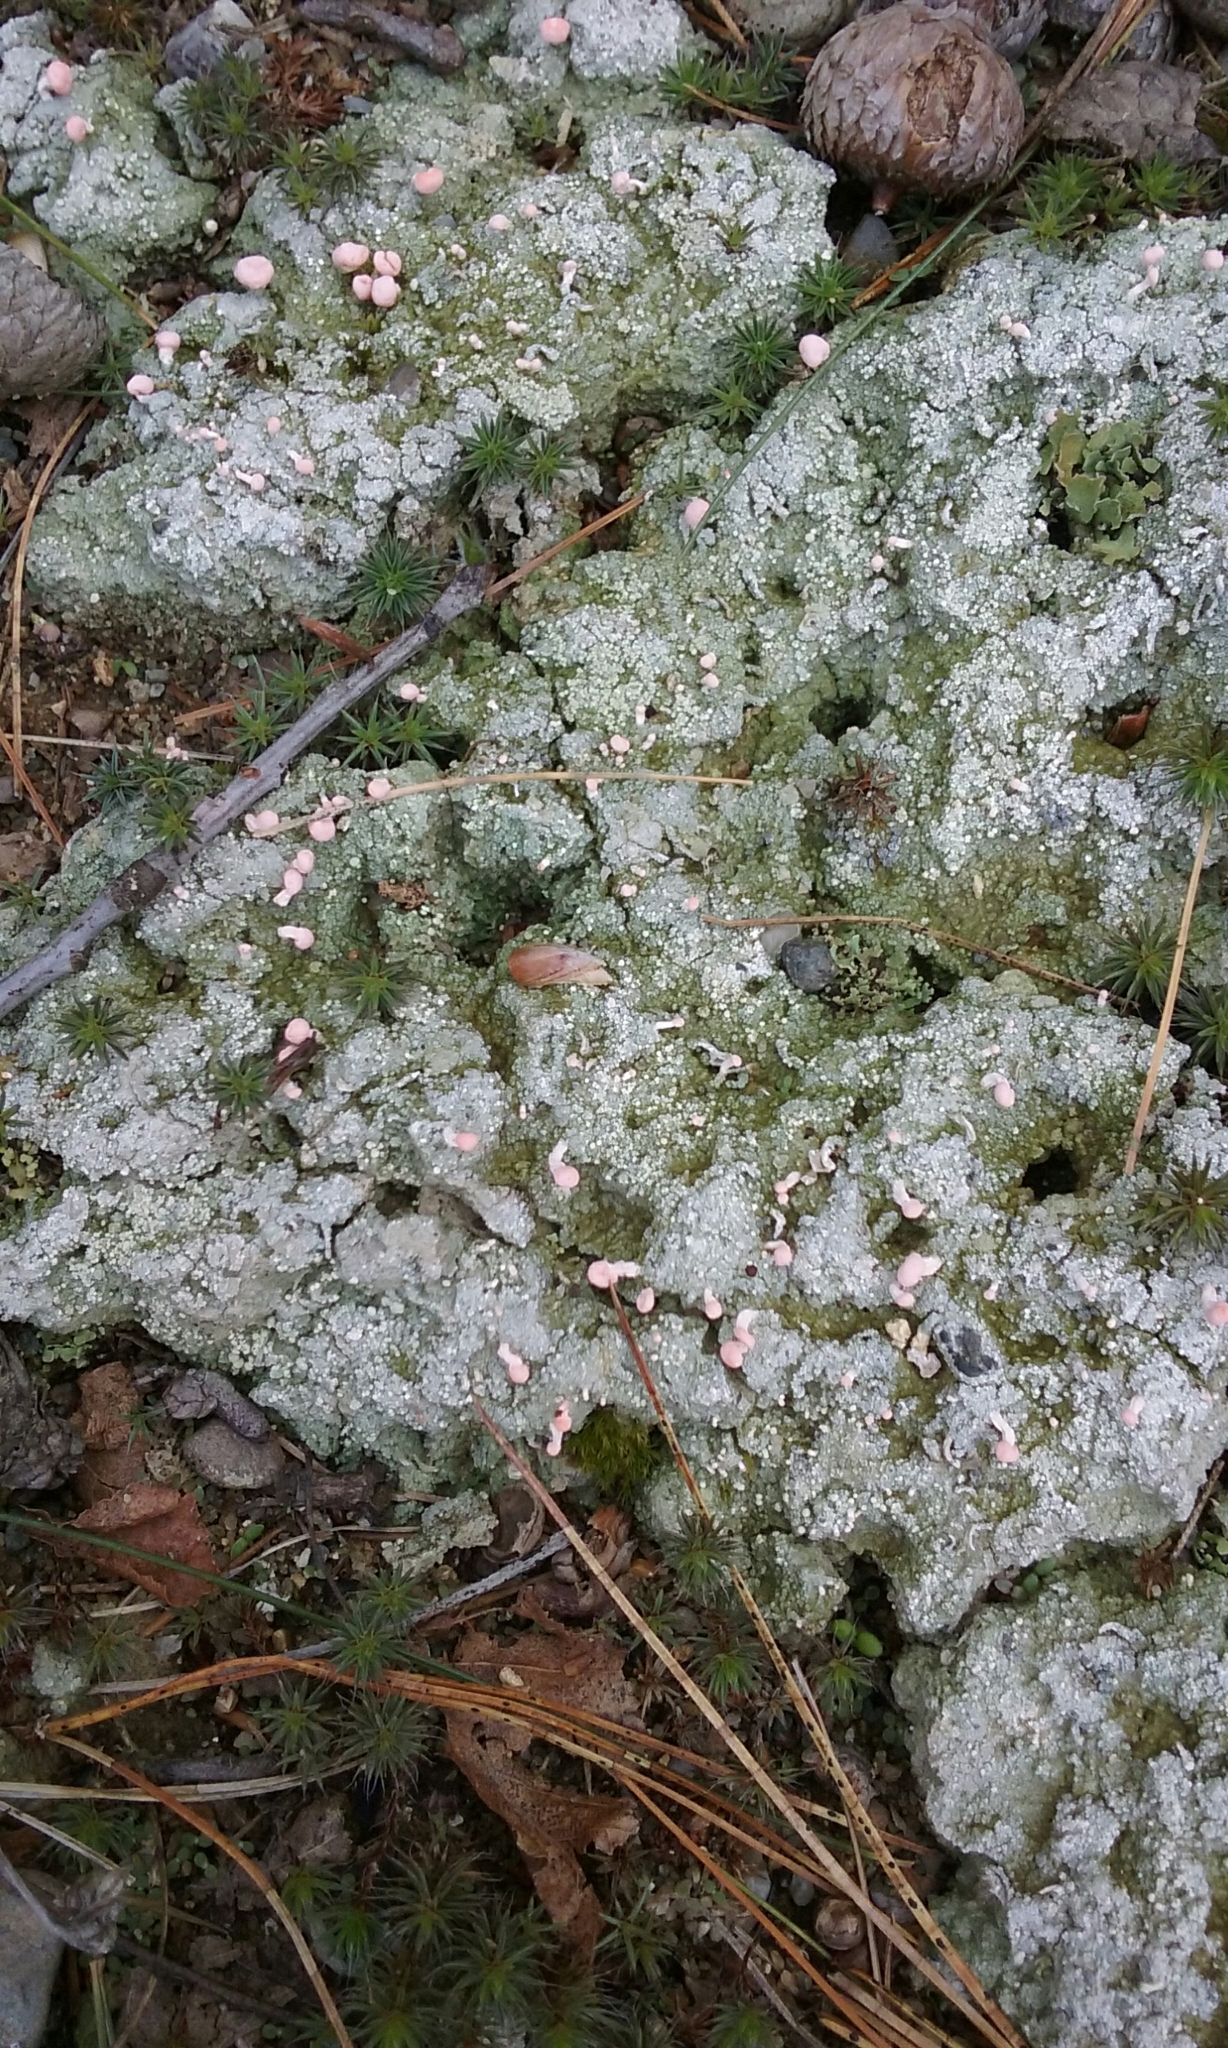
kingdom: Fungi
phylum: Ascomycota
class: Lecanoromycetes
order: Pertusariales
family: Icmadophilaceae
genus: Dibaeis
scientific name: Dibaeis baeomyces
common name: Pink earth lichen
